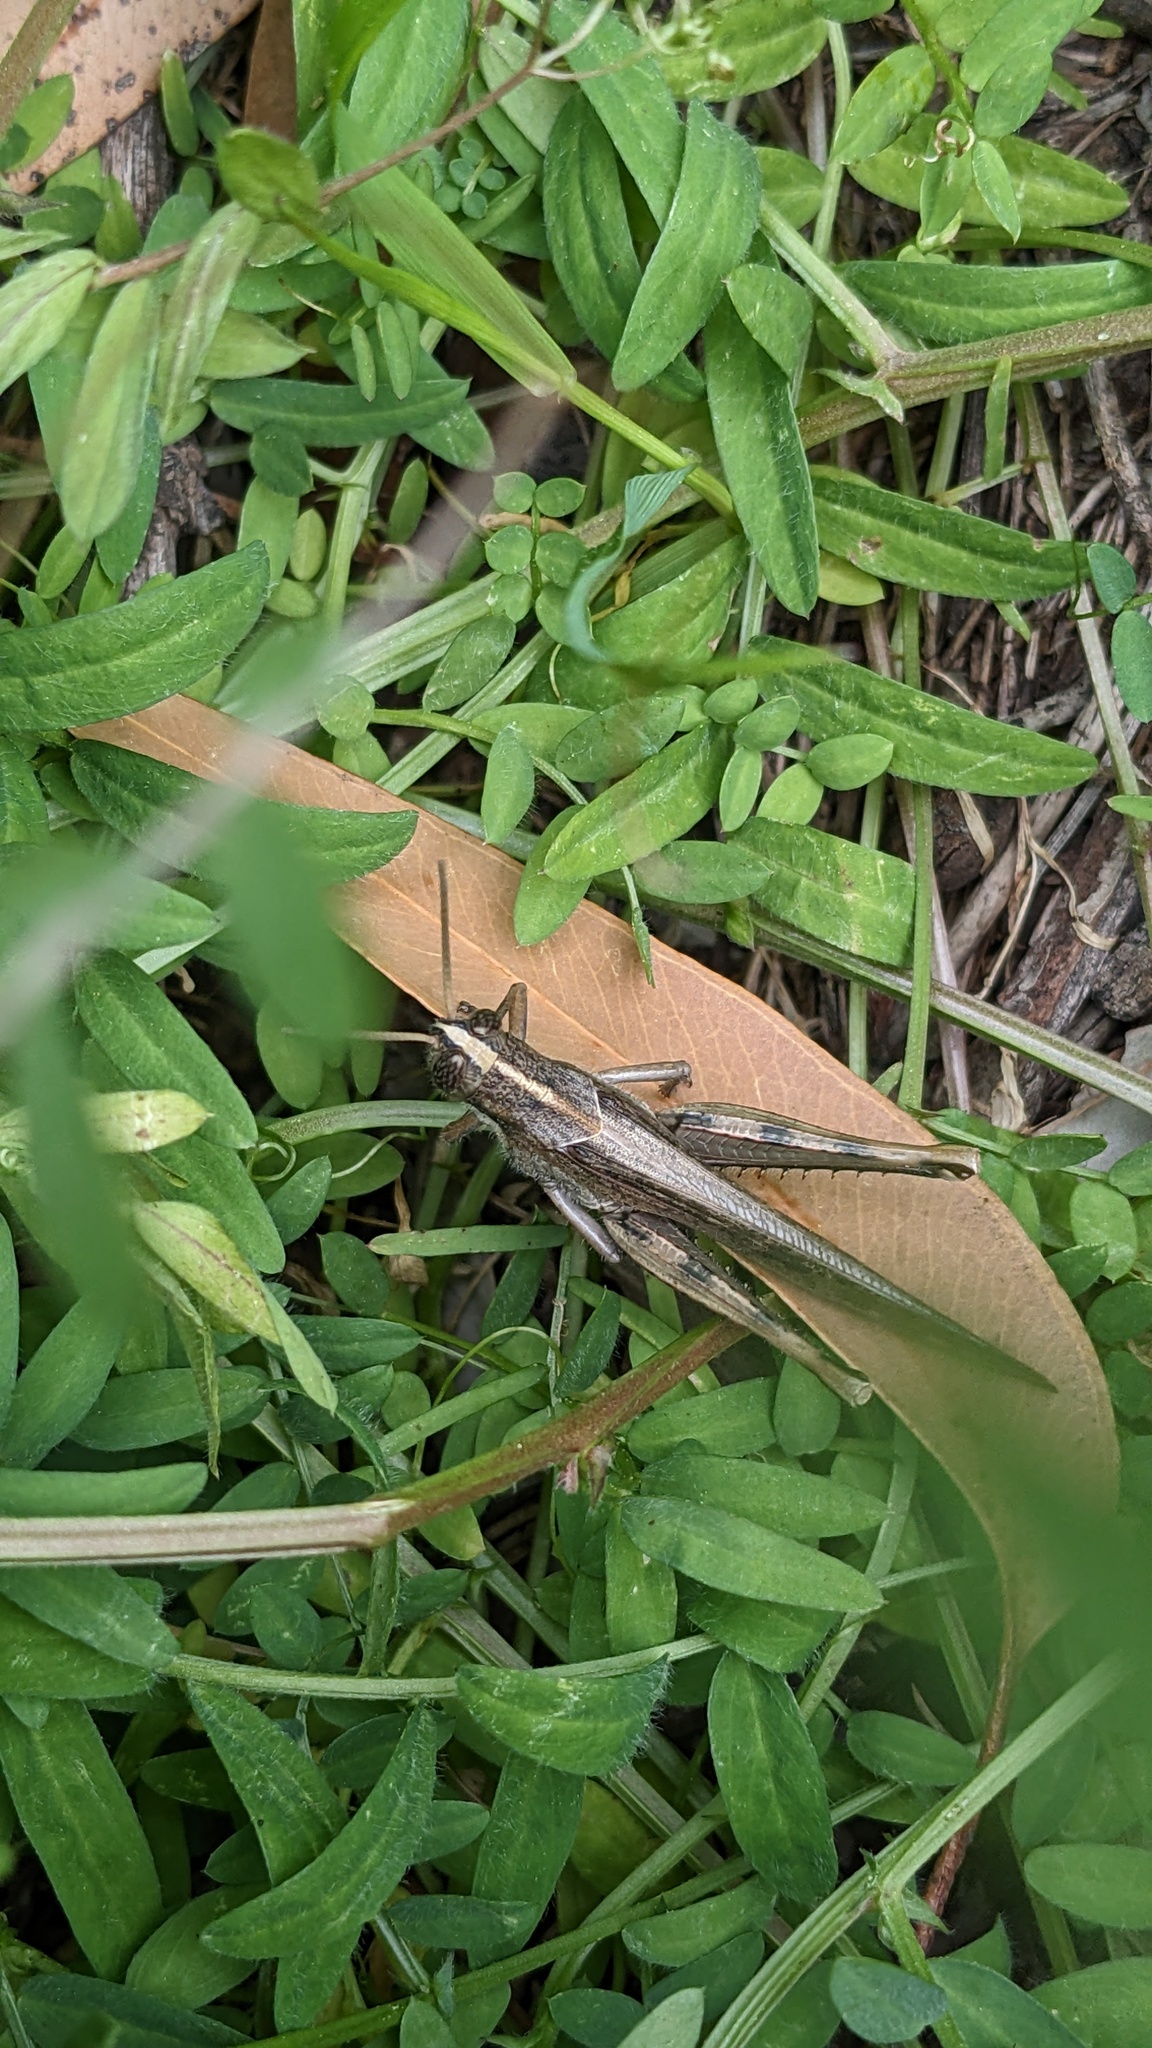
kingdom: Animalia
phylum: Arthropoda
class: Insecta
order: Orthoptera
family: Acrididae
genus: Schistocerca
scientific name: Schistocerca nitens
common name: Vagrant grasshopper
